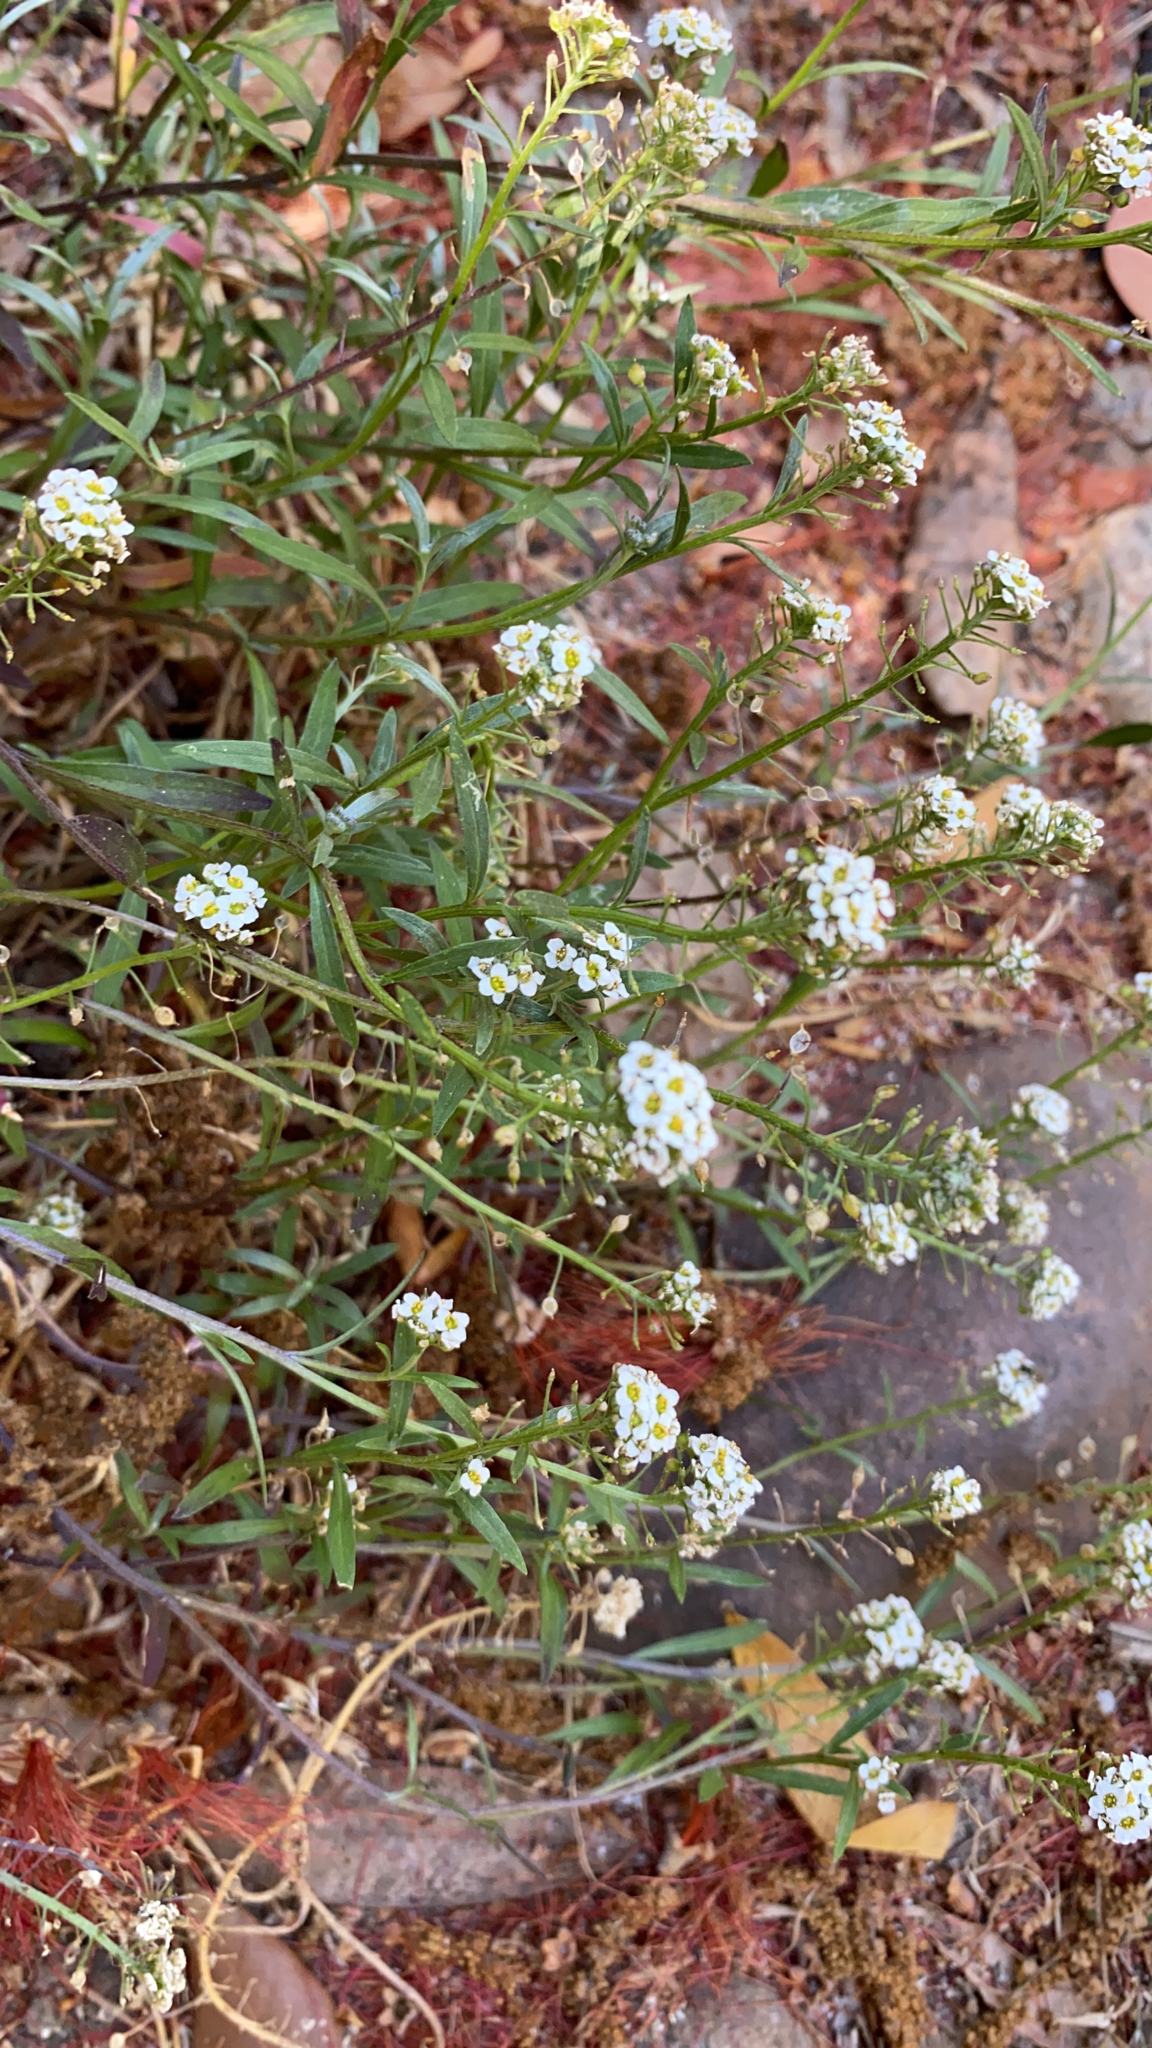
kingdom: Plantae
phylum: Tracheophyta
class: Magnoliopsida
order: Brassicales
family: Brassicaceae
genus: Lobularia
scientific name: Lobularia maritima
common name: Sweet alison
